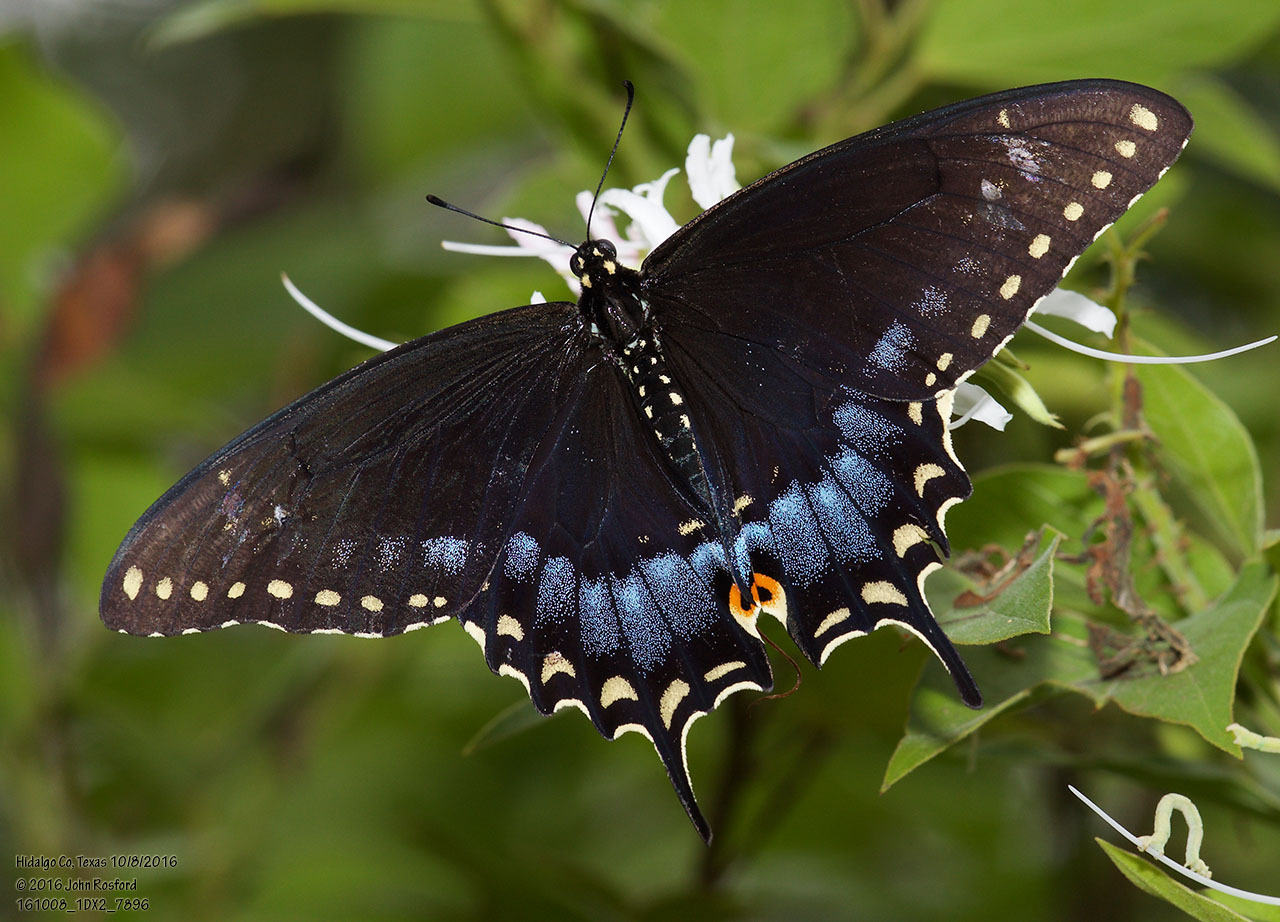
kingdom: Animalia
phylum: Arthropoda
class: Insecta
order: Lepidoptera
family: Papilionidae
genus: Papilio
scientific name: Papilio polyxenes
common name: Black swallowtail
